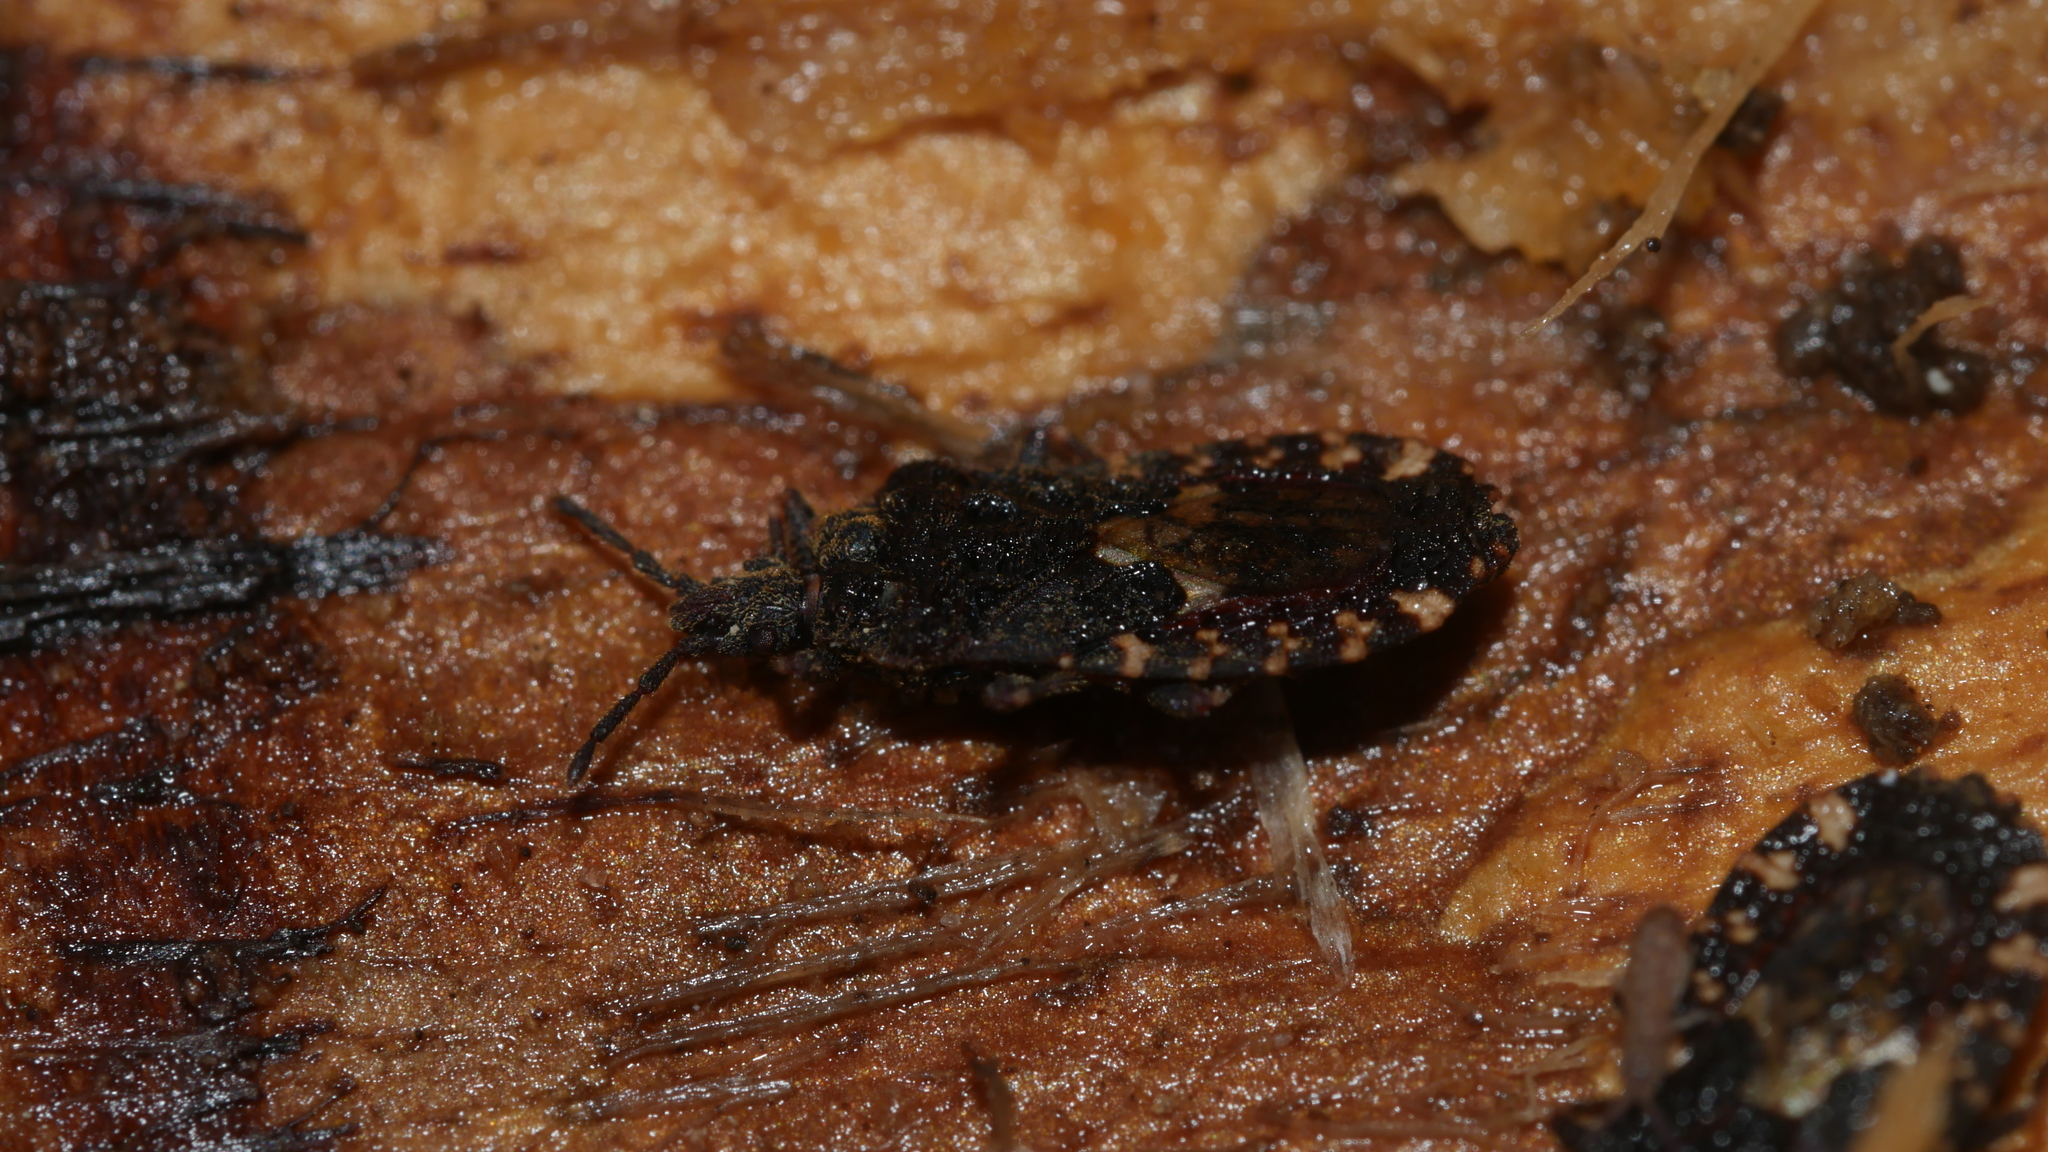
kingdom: Animalia
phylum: Arthropoda
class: Insecta
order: Hemiptera
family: Aradidae
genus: Mezira
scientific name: Mezira
